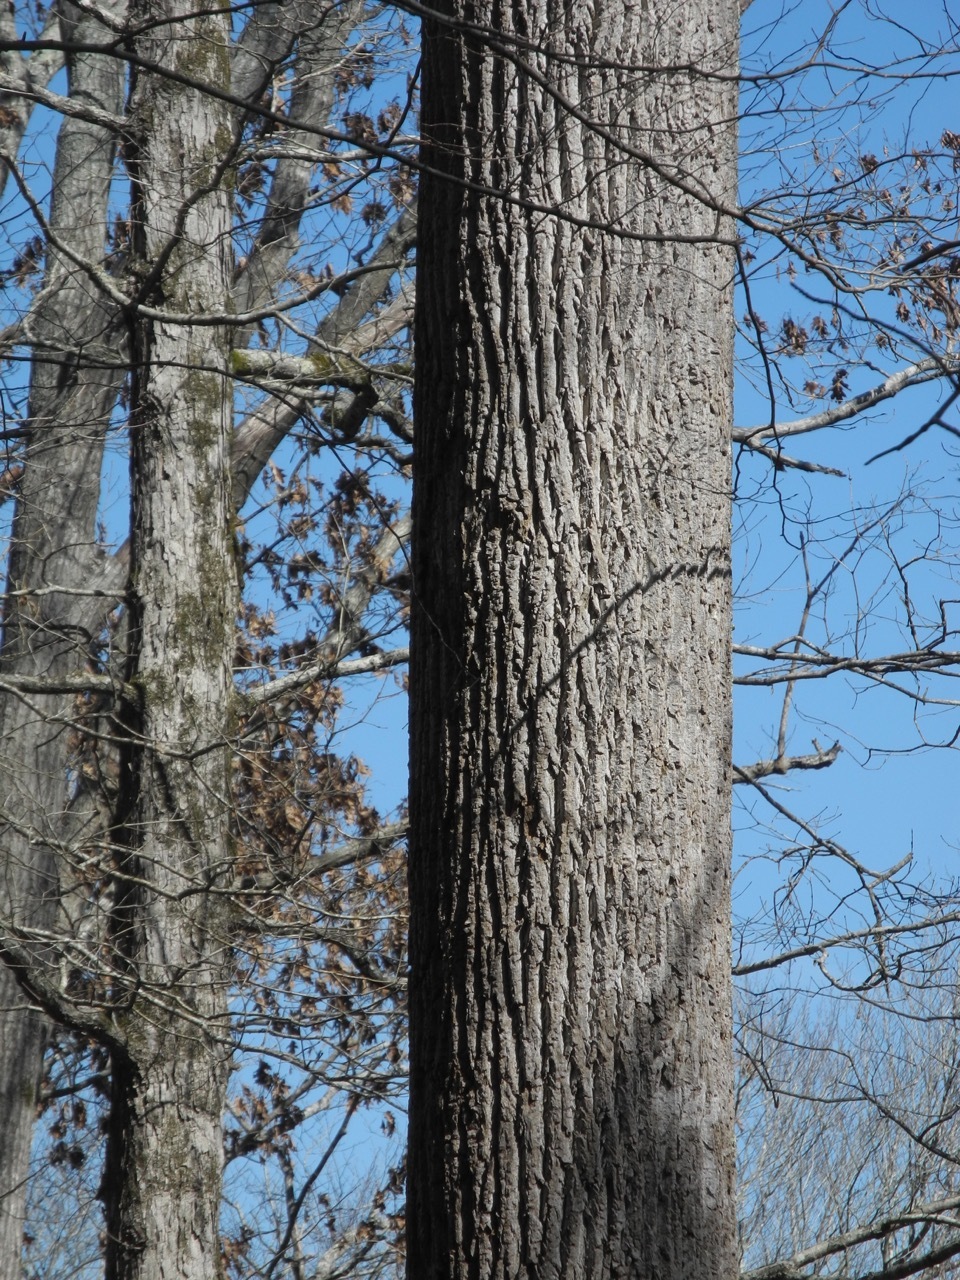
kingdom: Plantae
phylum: Tracheophyta
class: Magnoliopsida
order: Magnoliales
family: Magnoliaceae
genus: Liriodendron
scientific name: Liriodendron tulipifera
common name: Tulip tree
